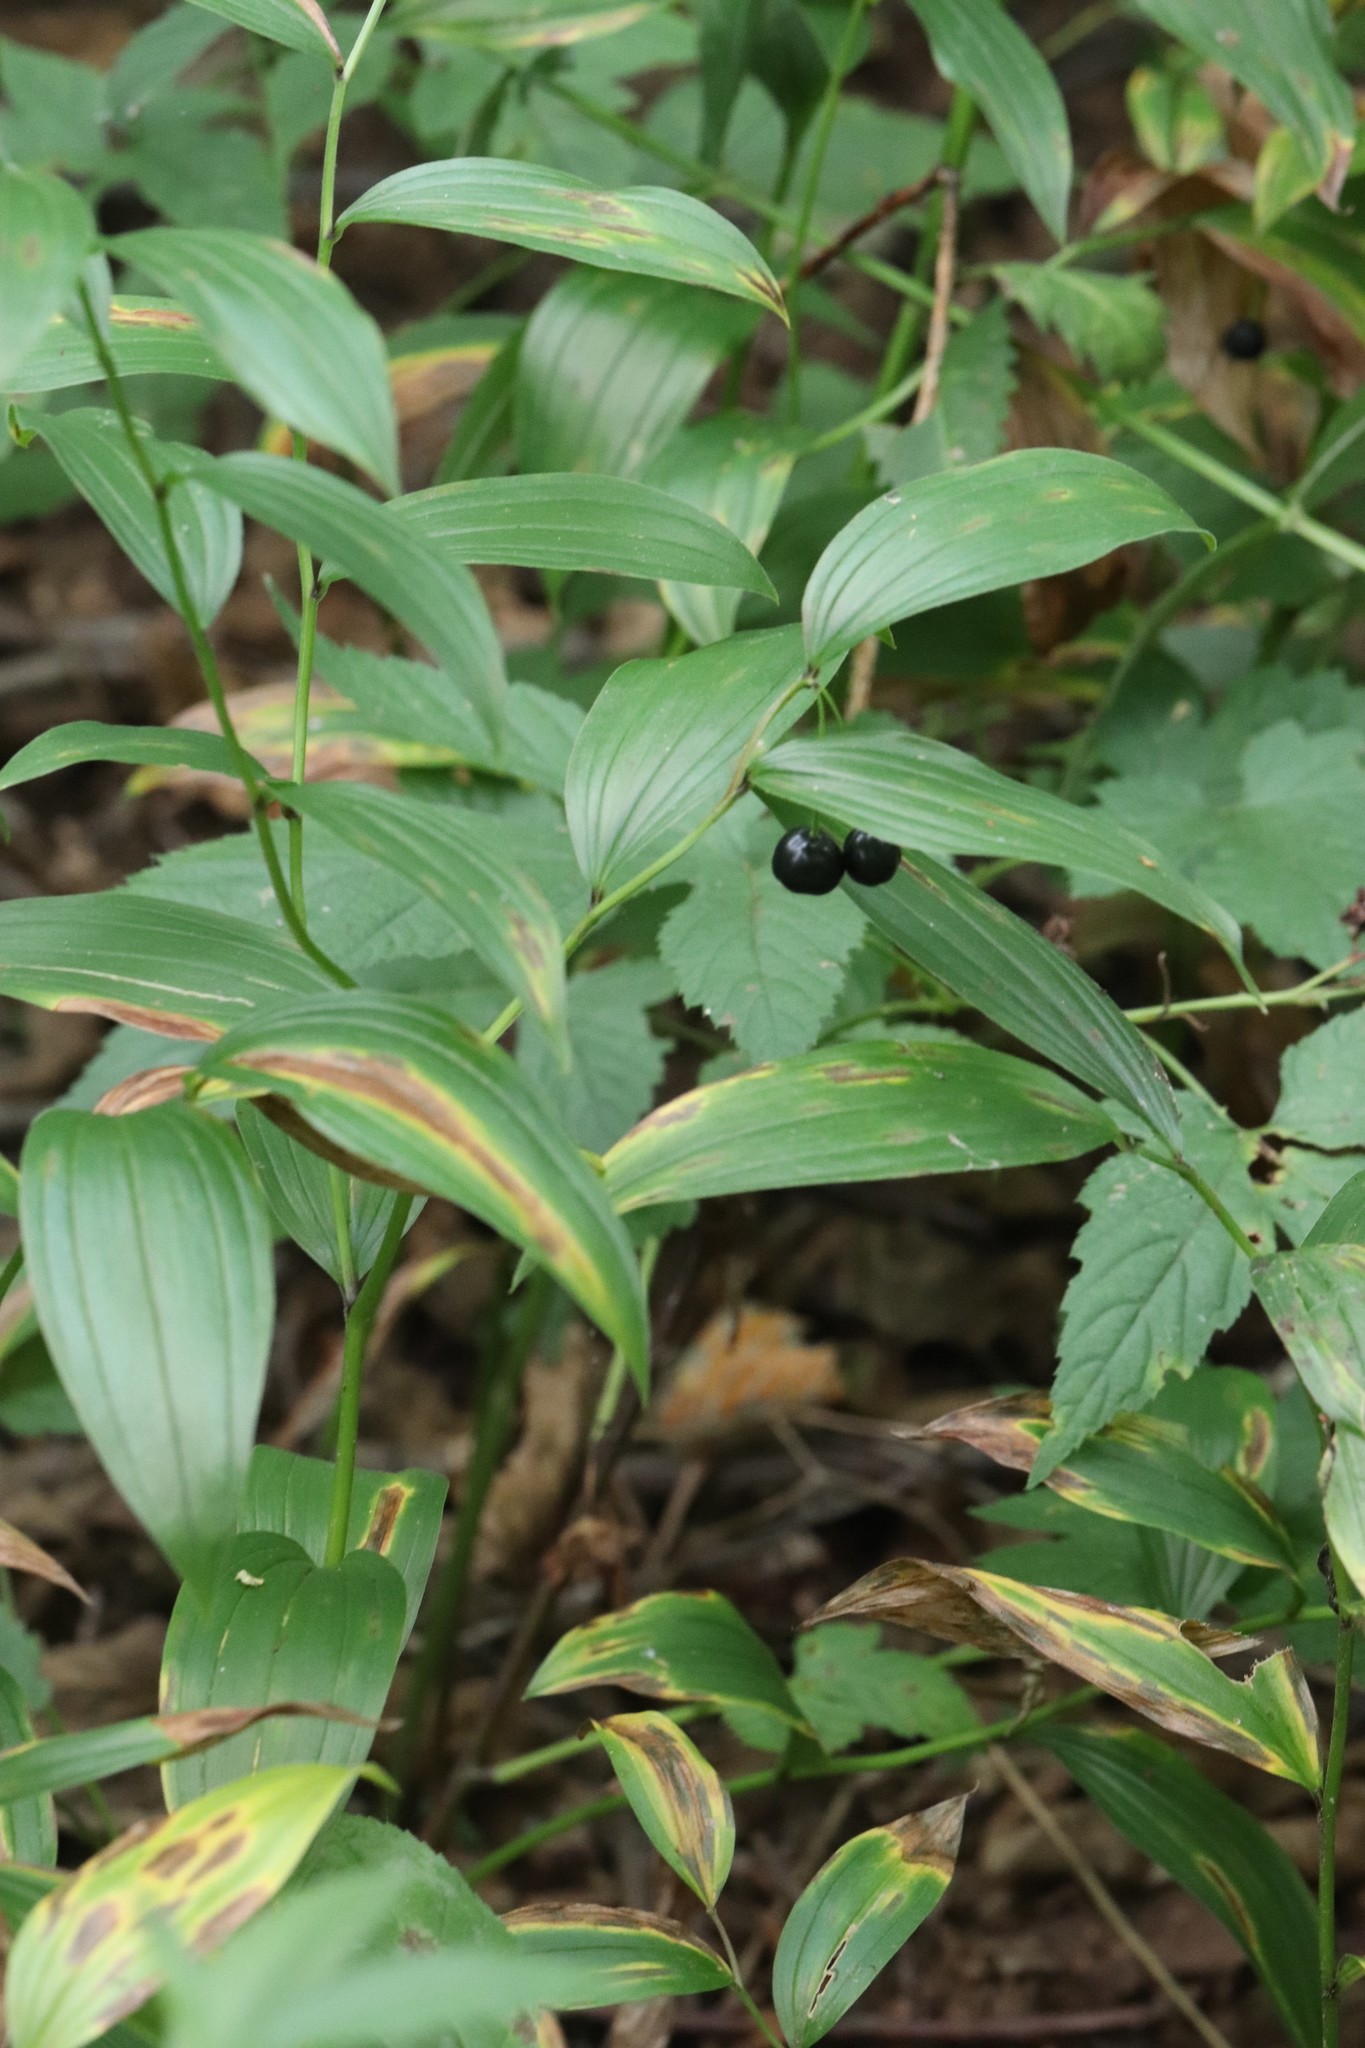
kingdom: Plantae
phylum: Tracheophyta
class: Liliopsida
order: Liliales
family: Colchicaceae
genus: Disporum
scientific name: Disporum viridescens
